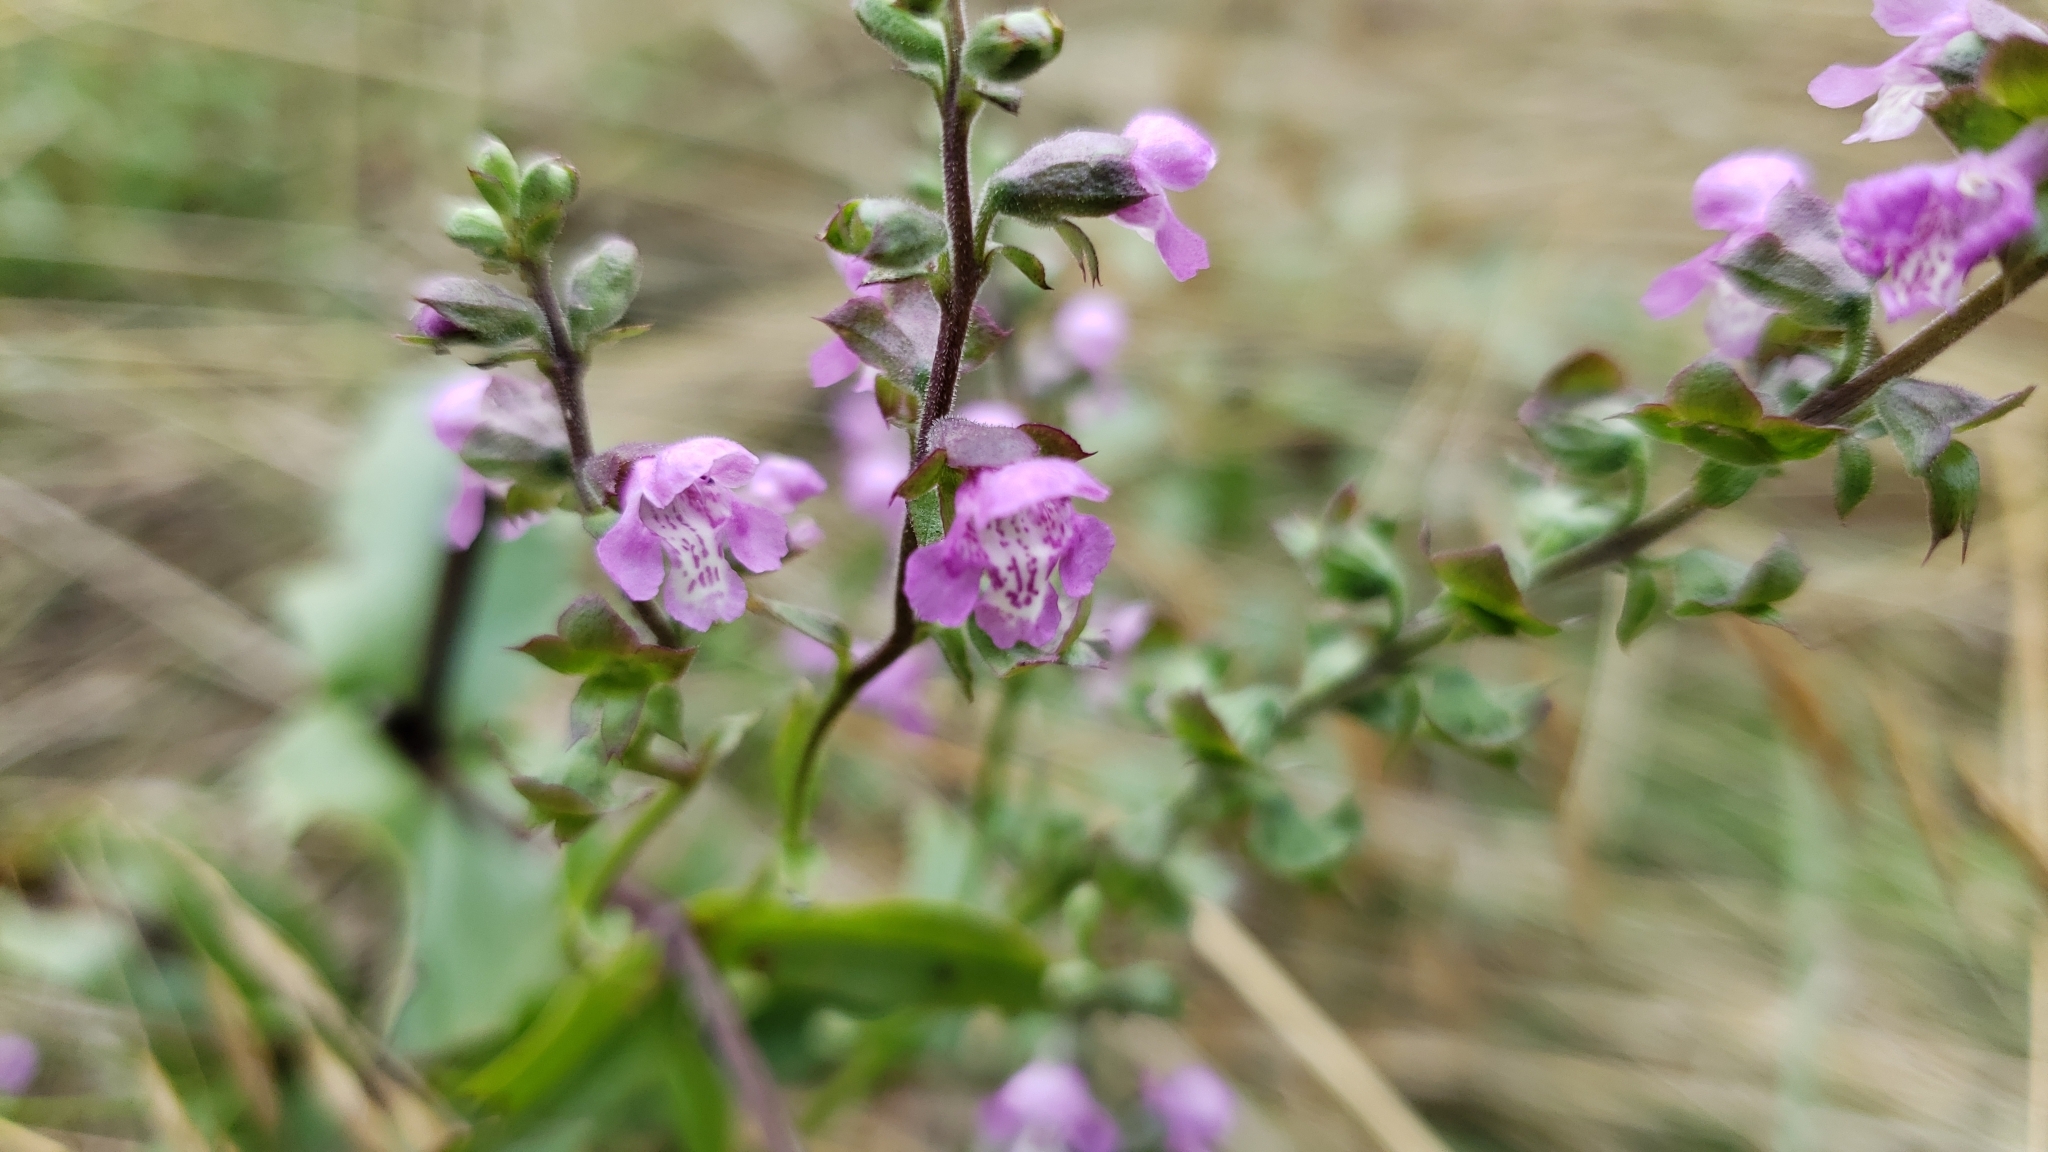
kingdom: Plantae
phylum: Tracheophyta
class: Magnoliopsida
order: Lamiales
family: Lamiaceae
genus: Warnockia
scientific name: Warnockia scutellarioides
